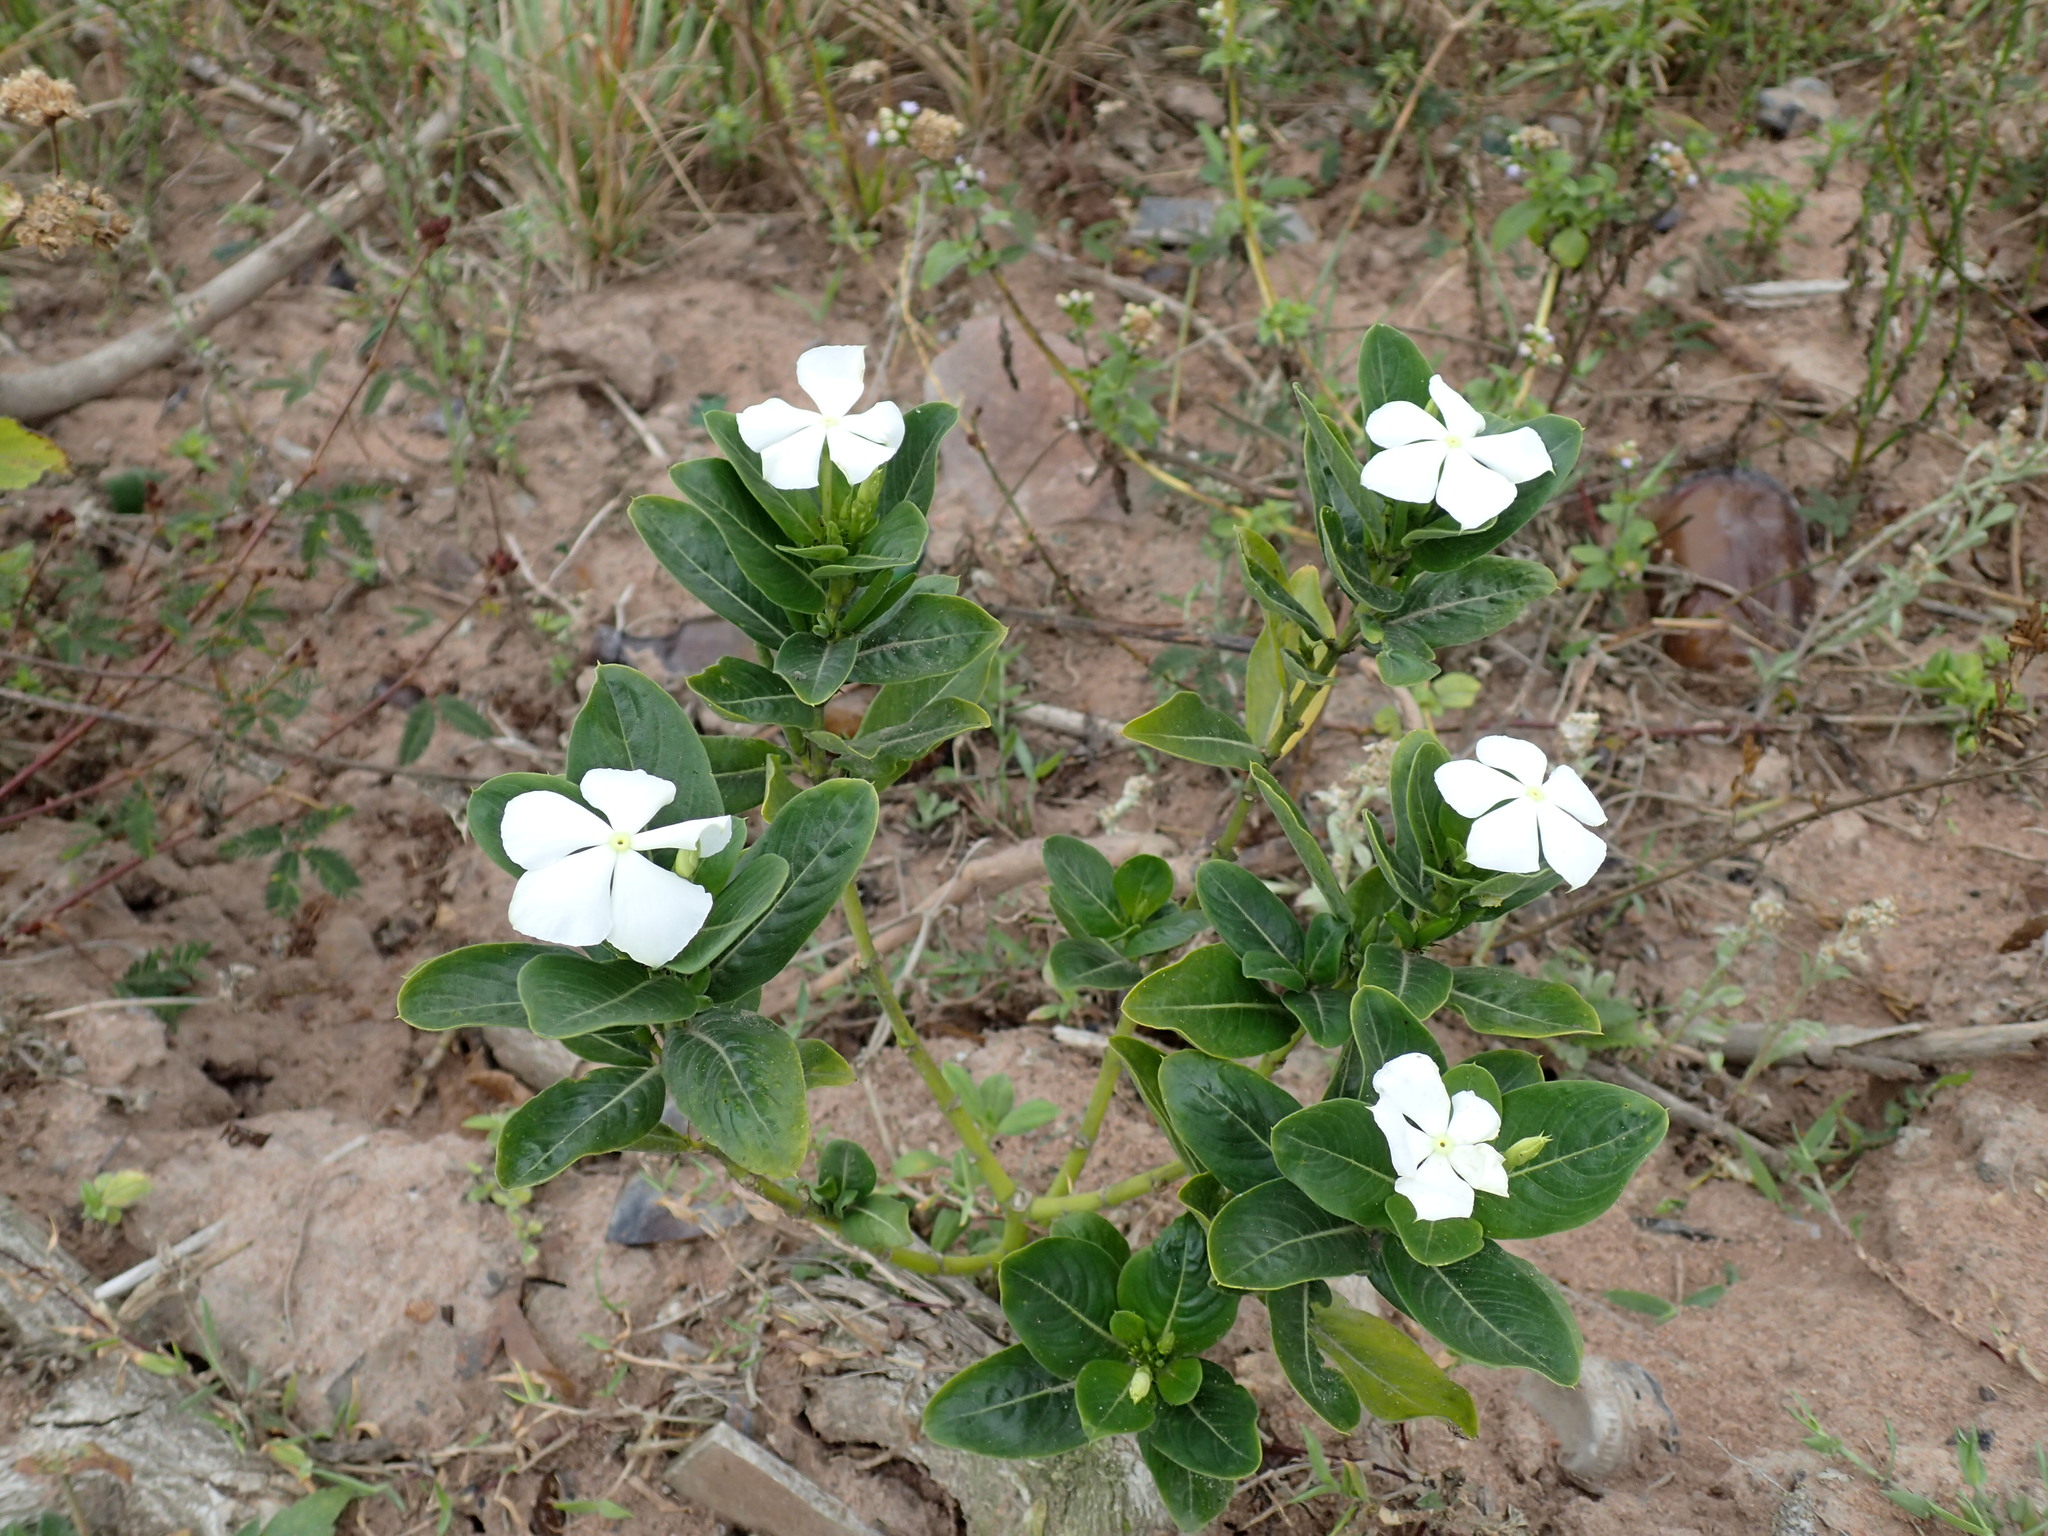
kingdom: Plantae
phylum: Tracheophyta
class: Magnoliopsida
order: Gentianales
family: Apocynaceae
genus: Catharanthus
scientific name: Catharanthus roseus
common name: Madagascar periwinkle
